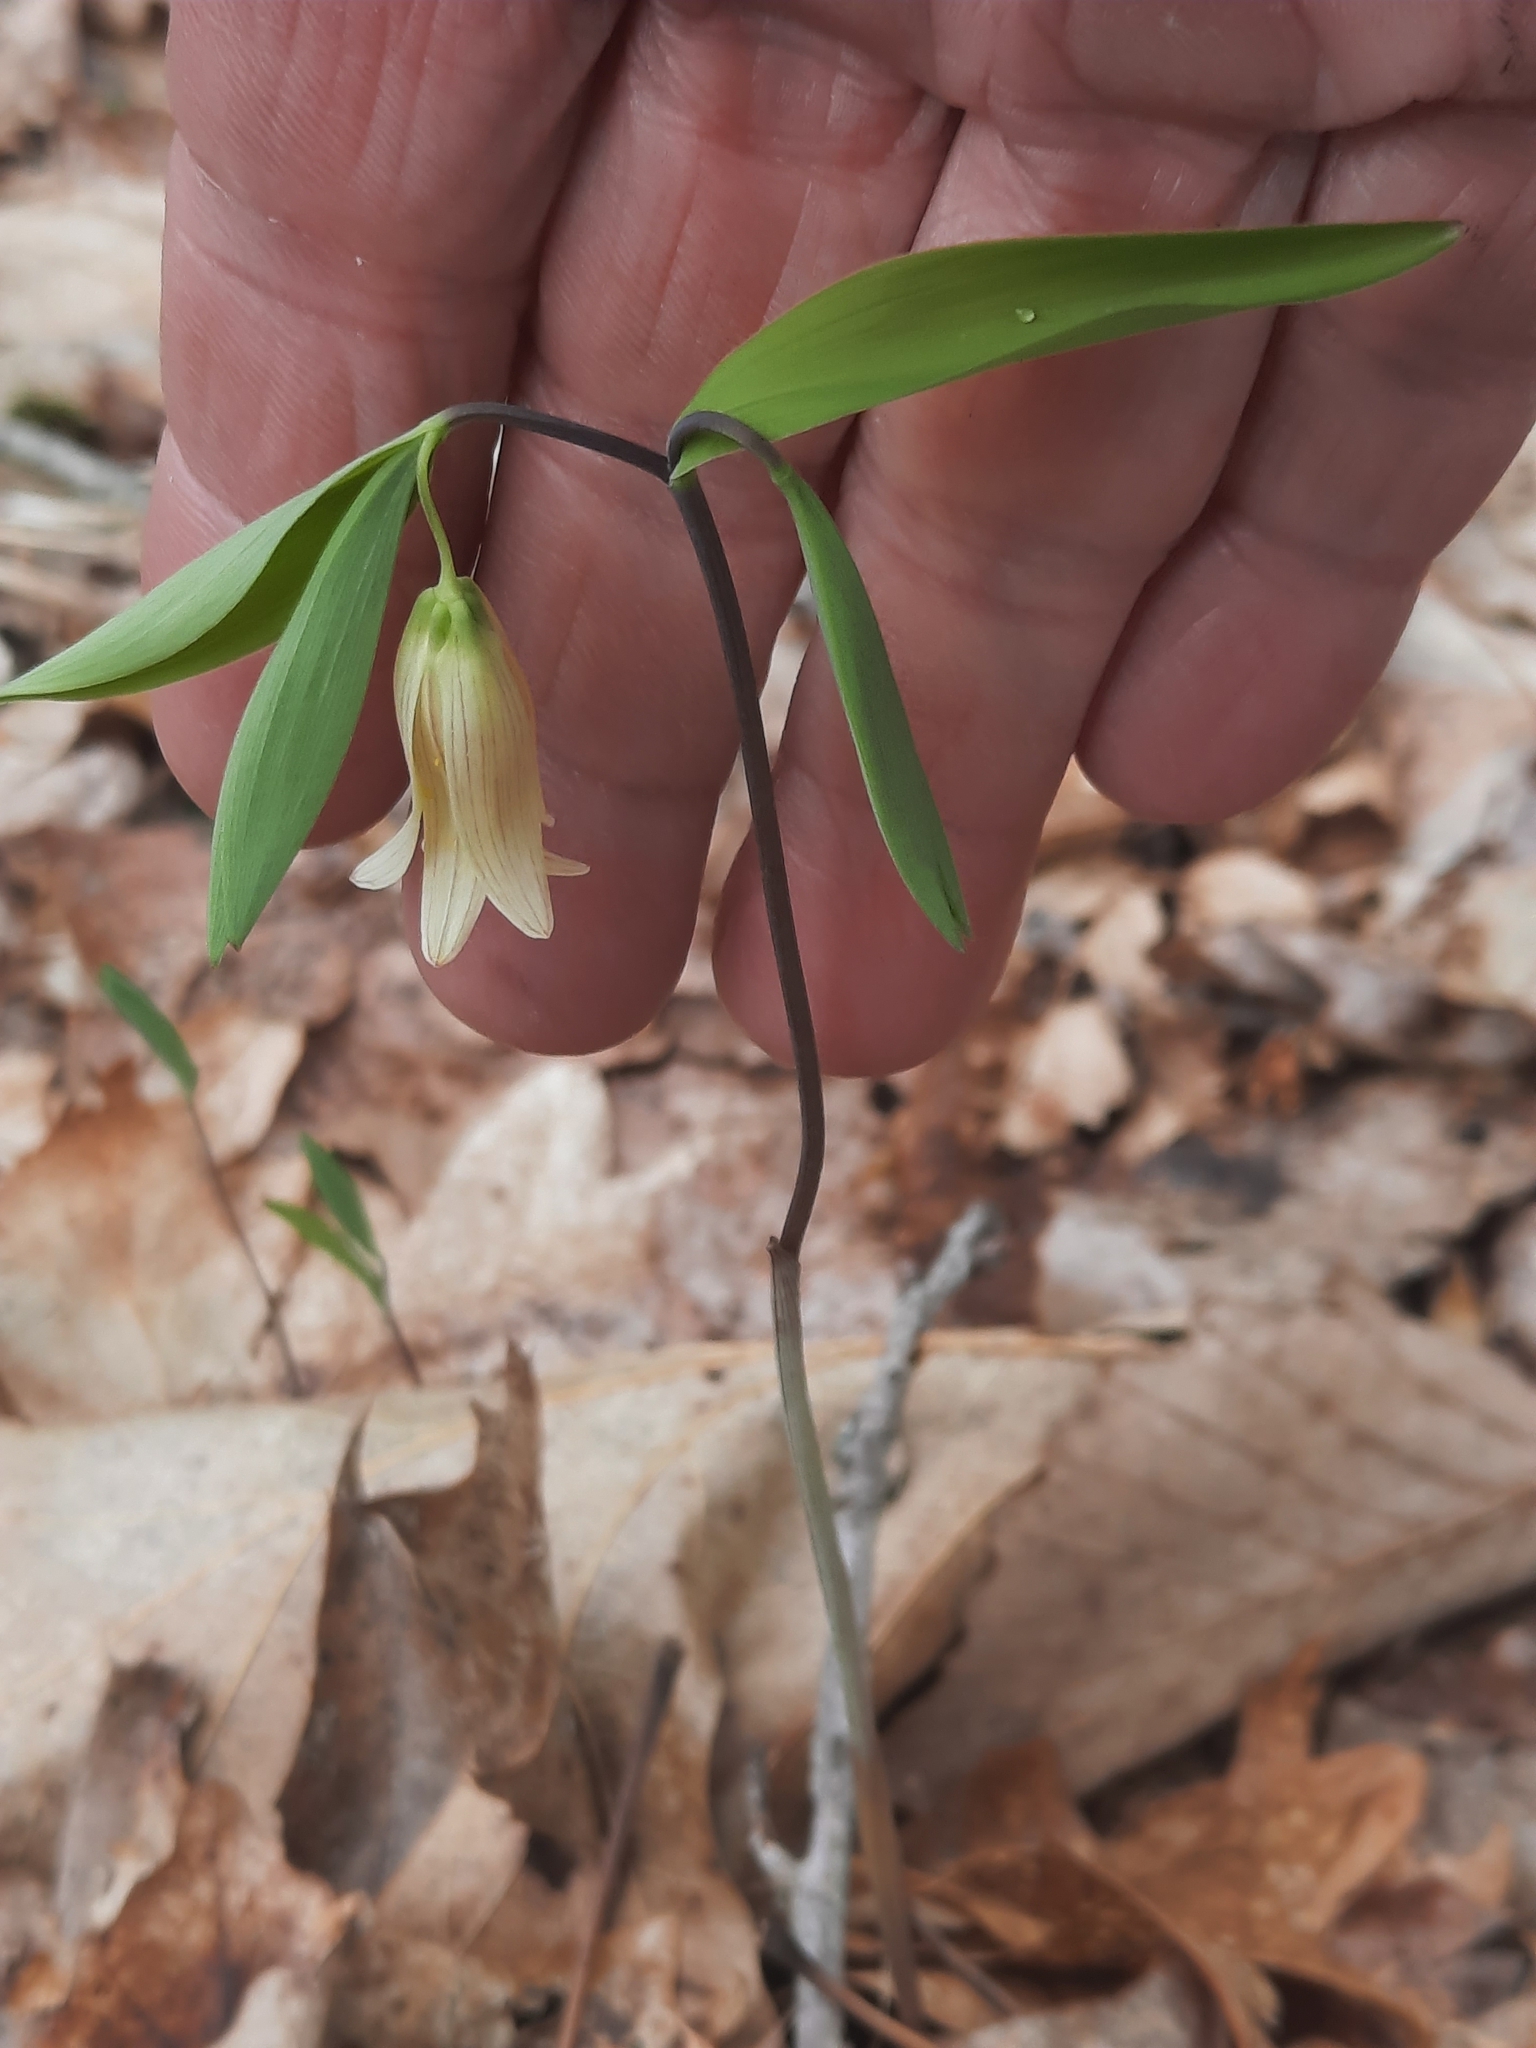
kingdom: Plantae
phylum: Tracheophyta
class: Liliopsida
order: Liliales
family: Colchicaceae
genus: Uvularia
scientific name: Uvularia sessilifolia
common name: Straw-lily
